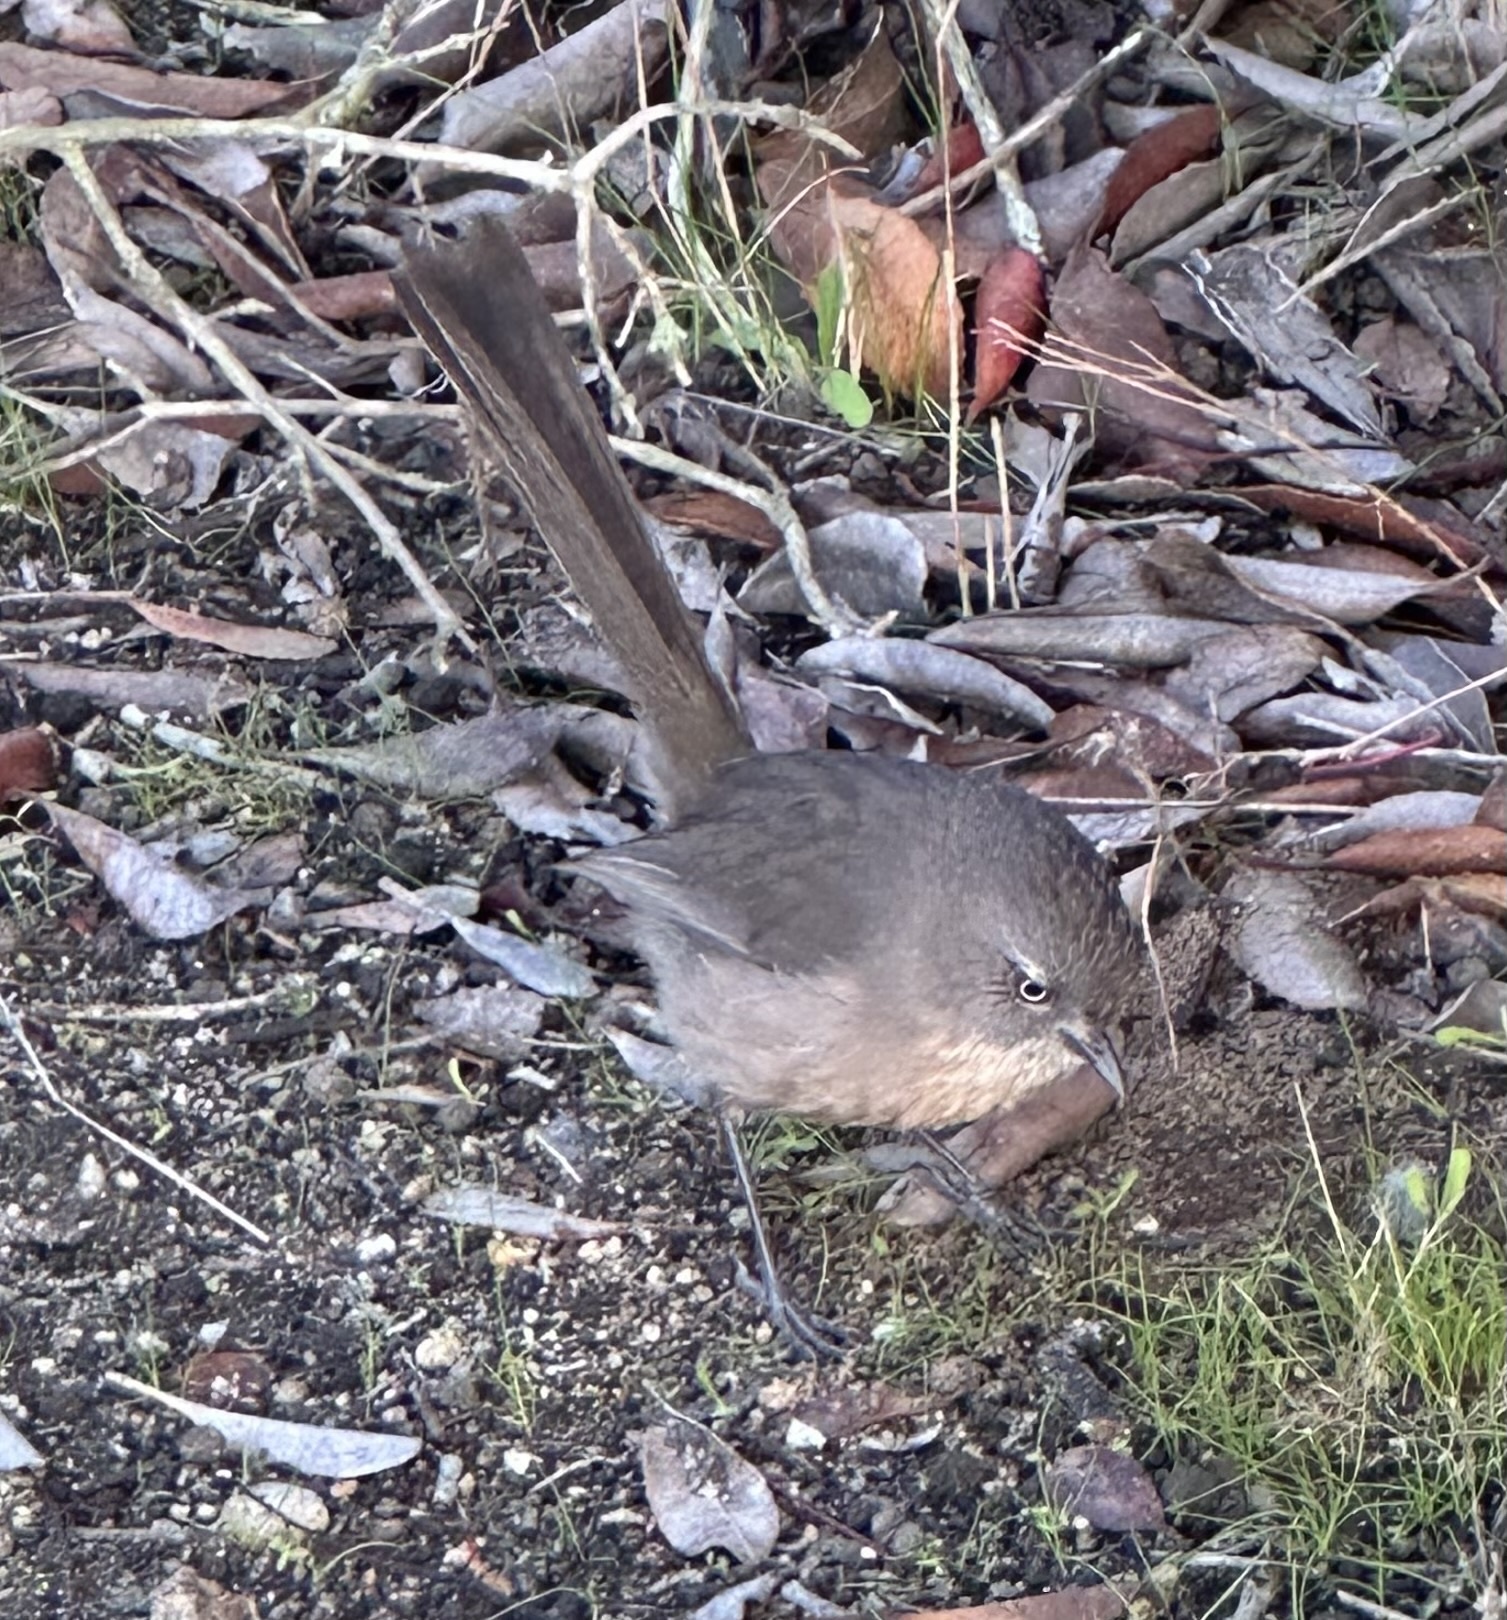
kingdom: Animalia
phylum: Chordata
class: Aves
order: Passeriformes
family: Sylviidae
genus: Chamaea
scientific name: Chamaea fasciata
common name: Wrentit
